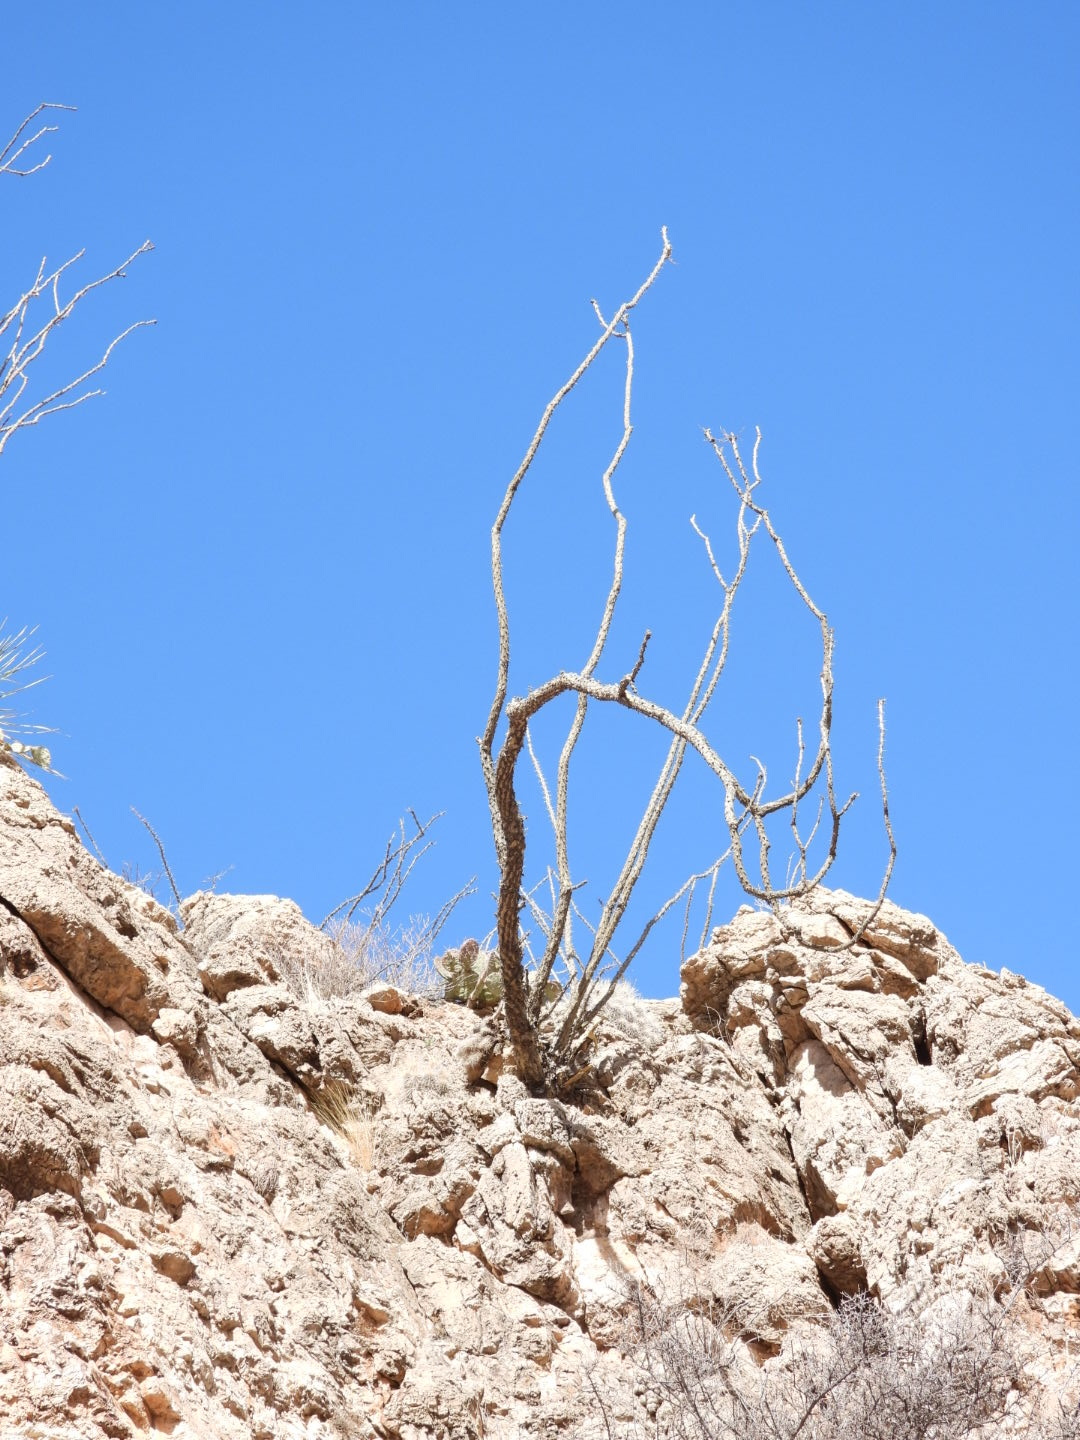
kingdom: Plantae
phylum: Tracheophyta
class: Magnoliopsida
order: Ericales
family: Fouquieriaceae
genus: Fouquieria
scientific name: Fouquieria splendens
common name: Vine-cactus
